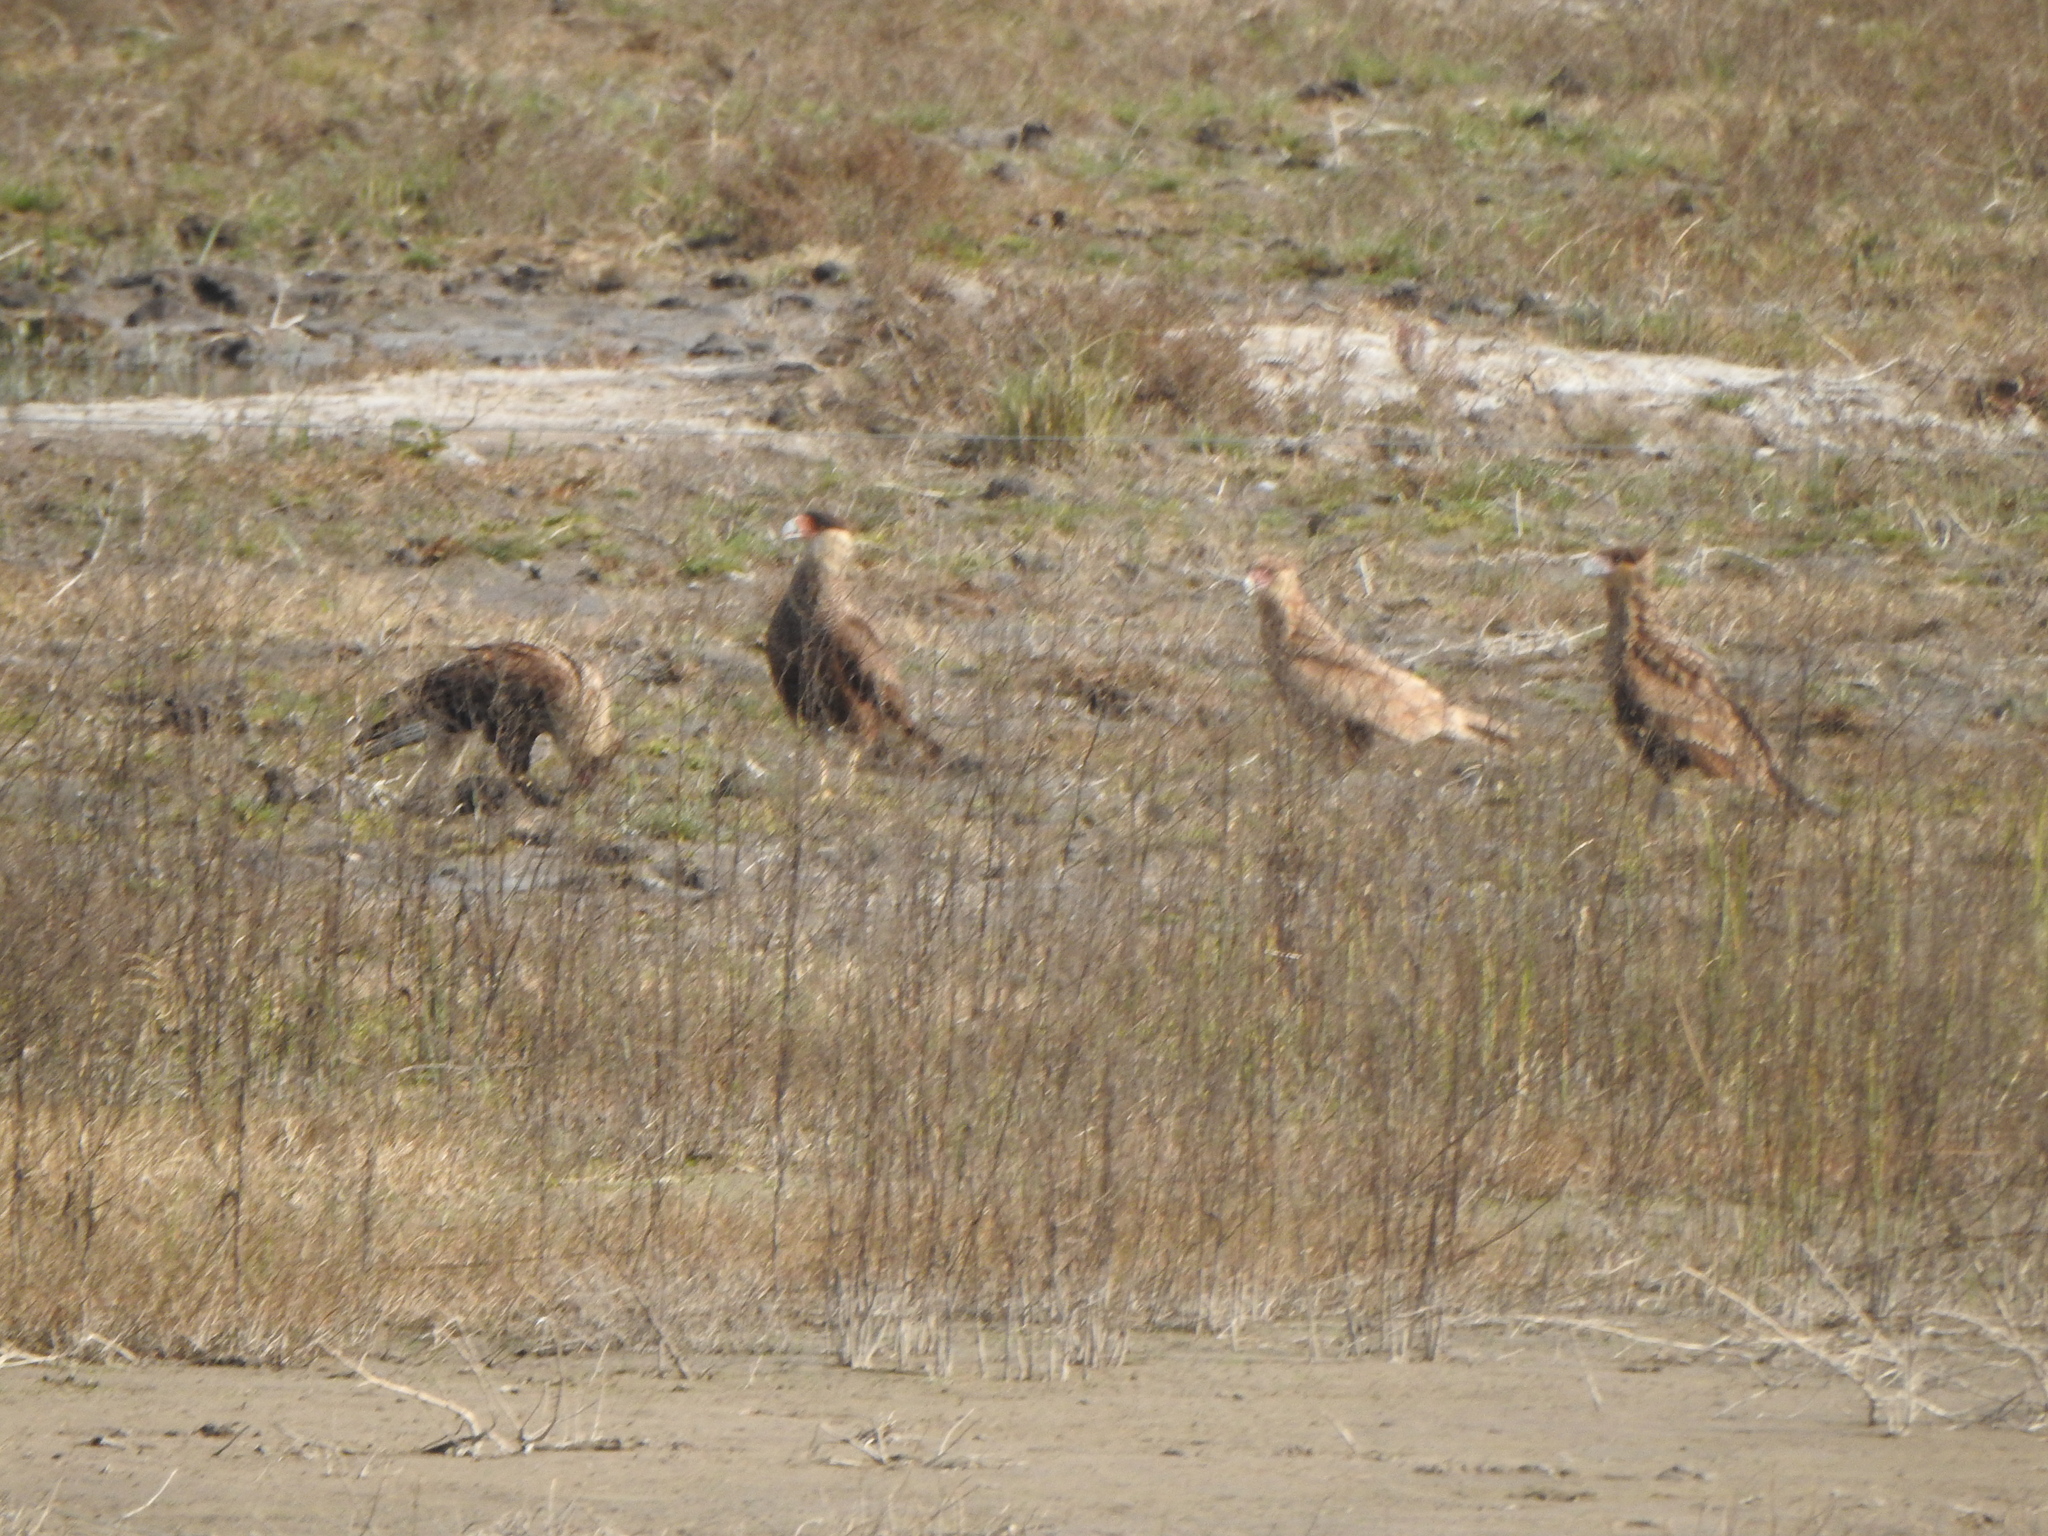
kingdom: Animalia
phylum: Chordata
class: Aves
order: Falconiformes
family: Falconidae
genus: Caracara
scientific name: Caracara plancus
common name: Southern caracara
